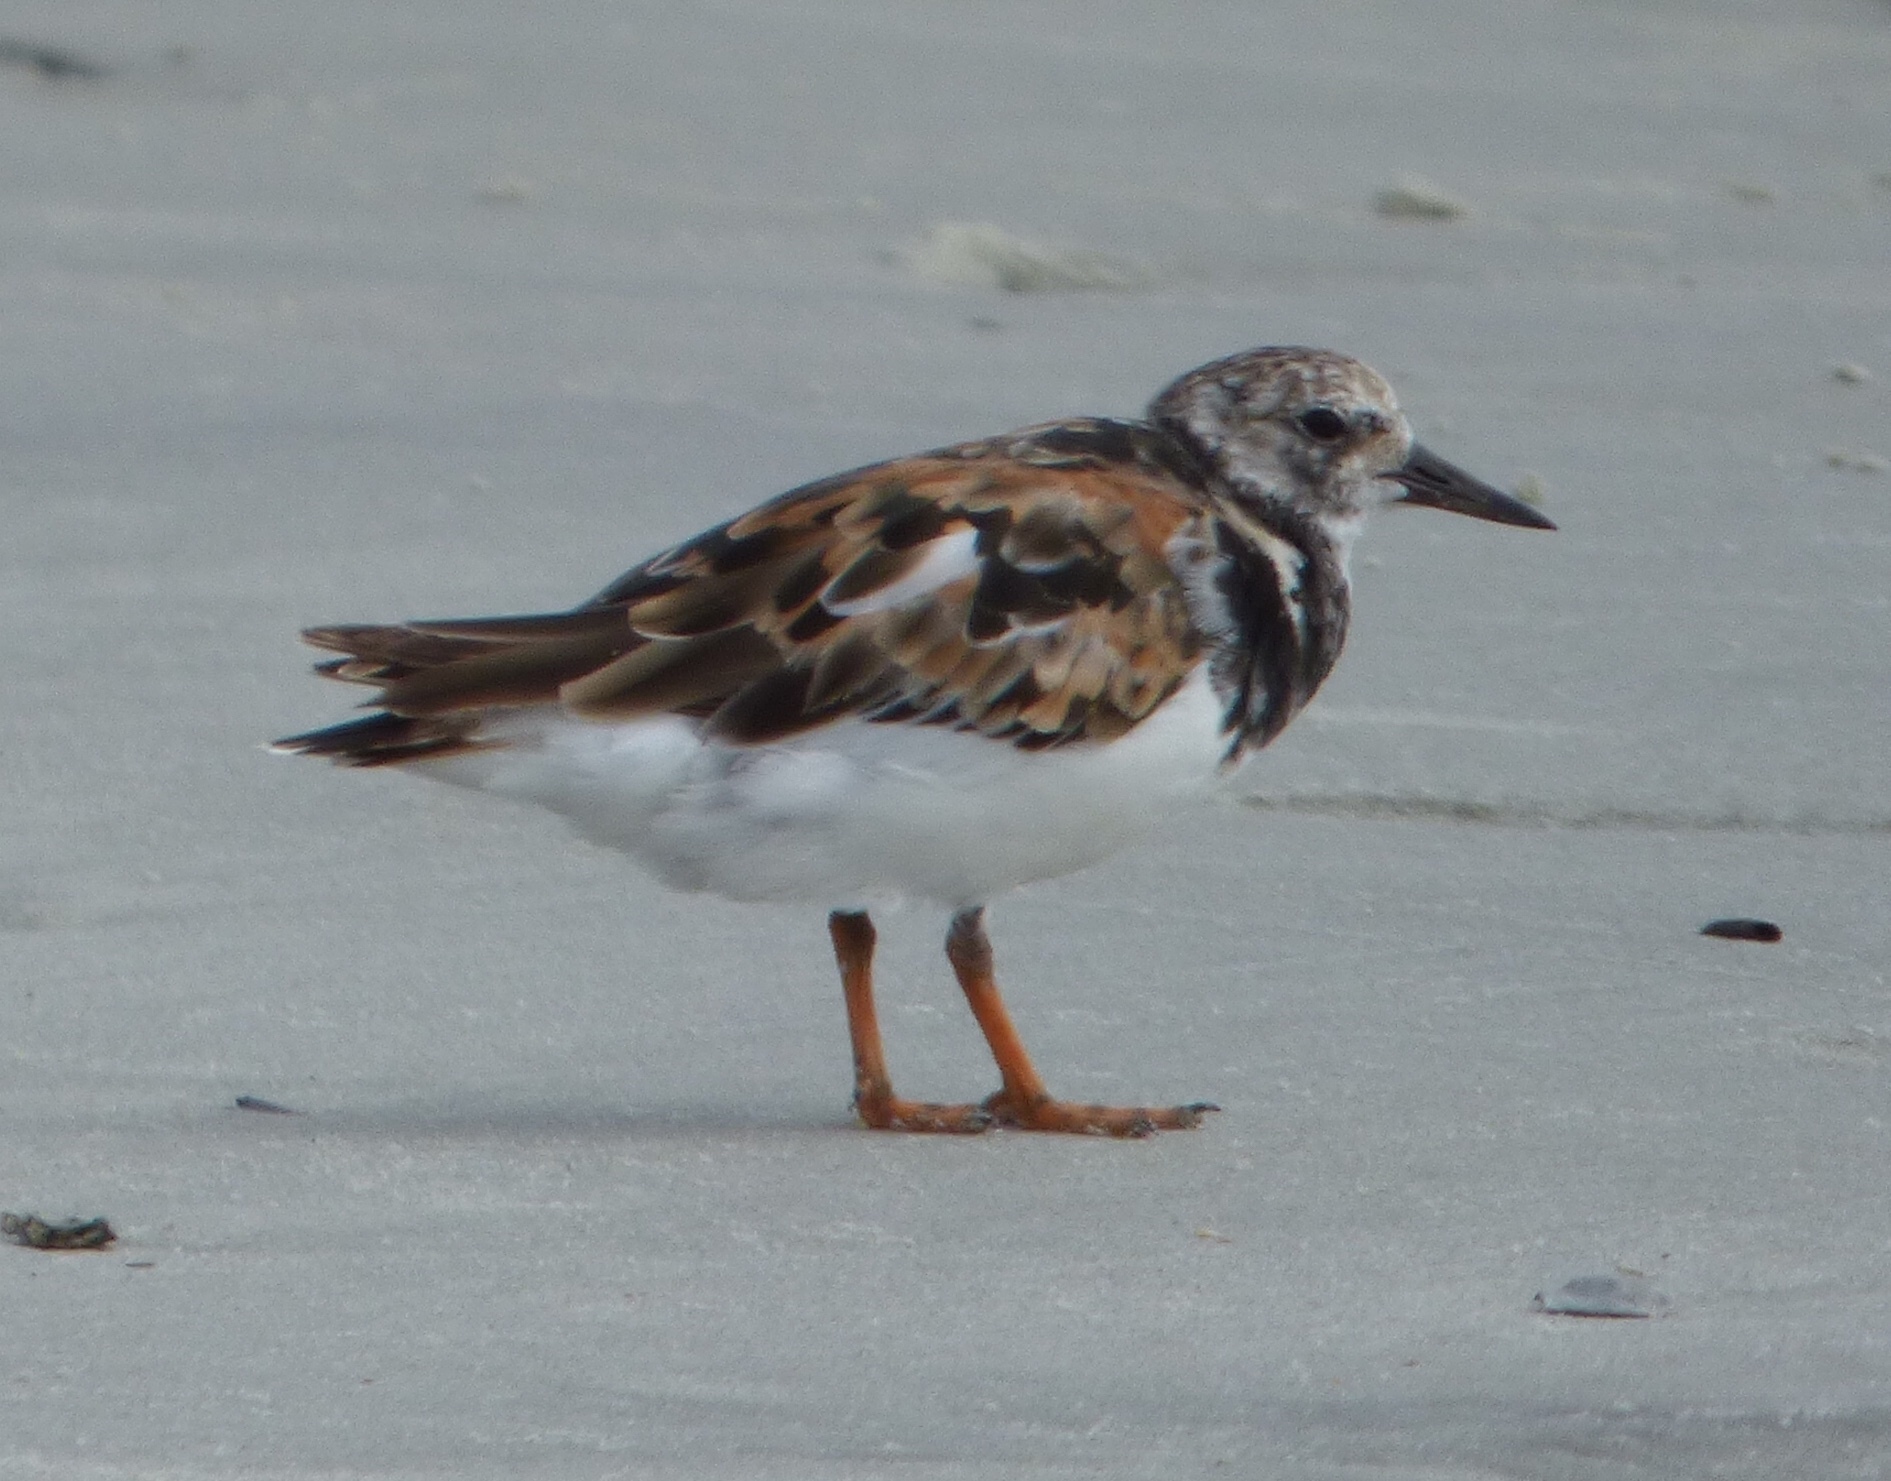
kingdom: Animalia
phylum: Chordata
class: Aves
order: Charadriiformes
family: Scolopacidae
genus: Arenaria
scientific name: Arenaria interpres
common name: Ruddy turnstone
